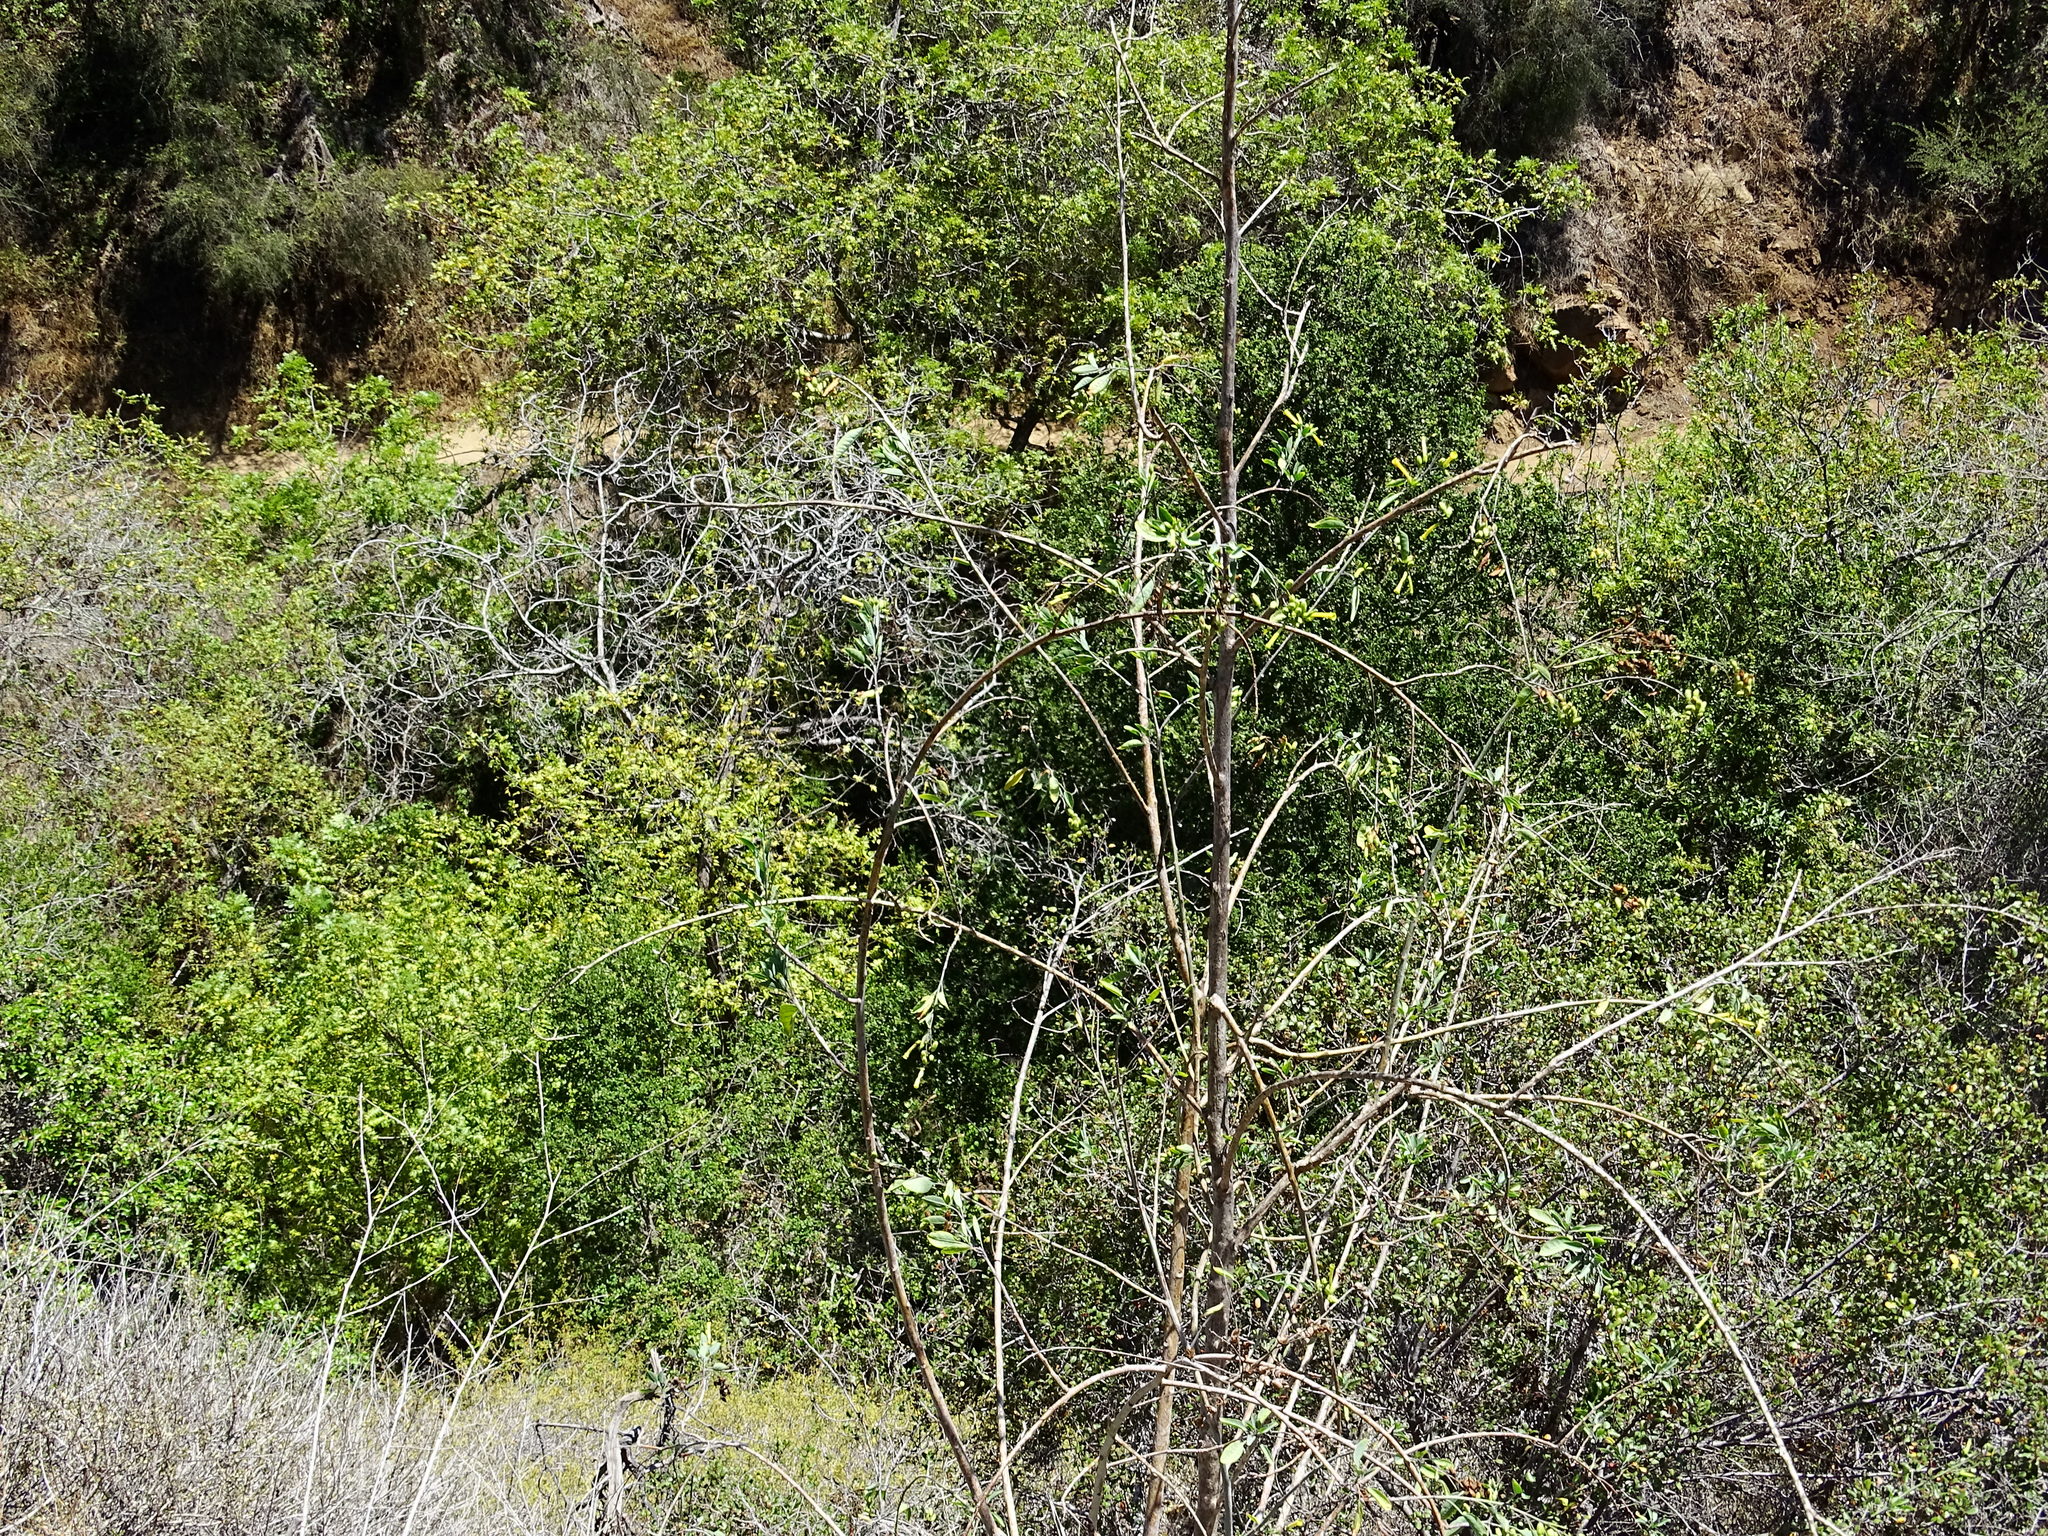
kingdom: Plantae
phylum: Tracheophyta
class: Magnoliopsida
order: Solanales
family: Solanaceae
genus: Nicotiana
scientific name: Nicotiana glauca
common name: Tree tobacco
